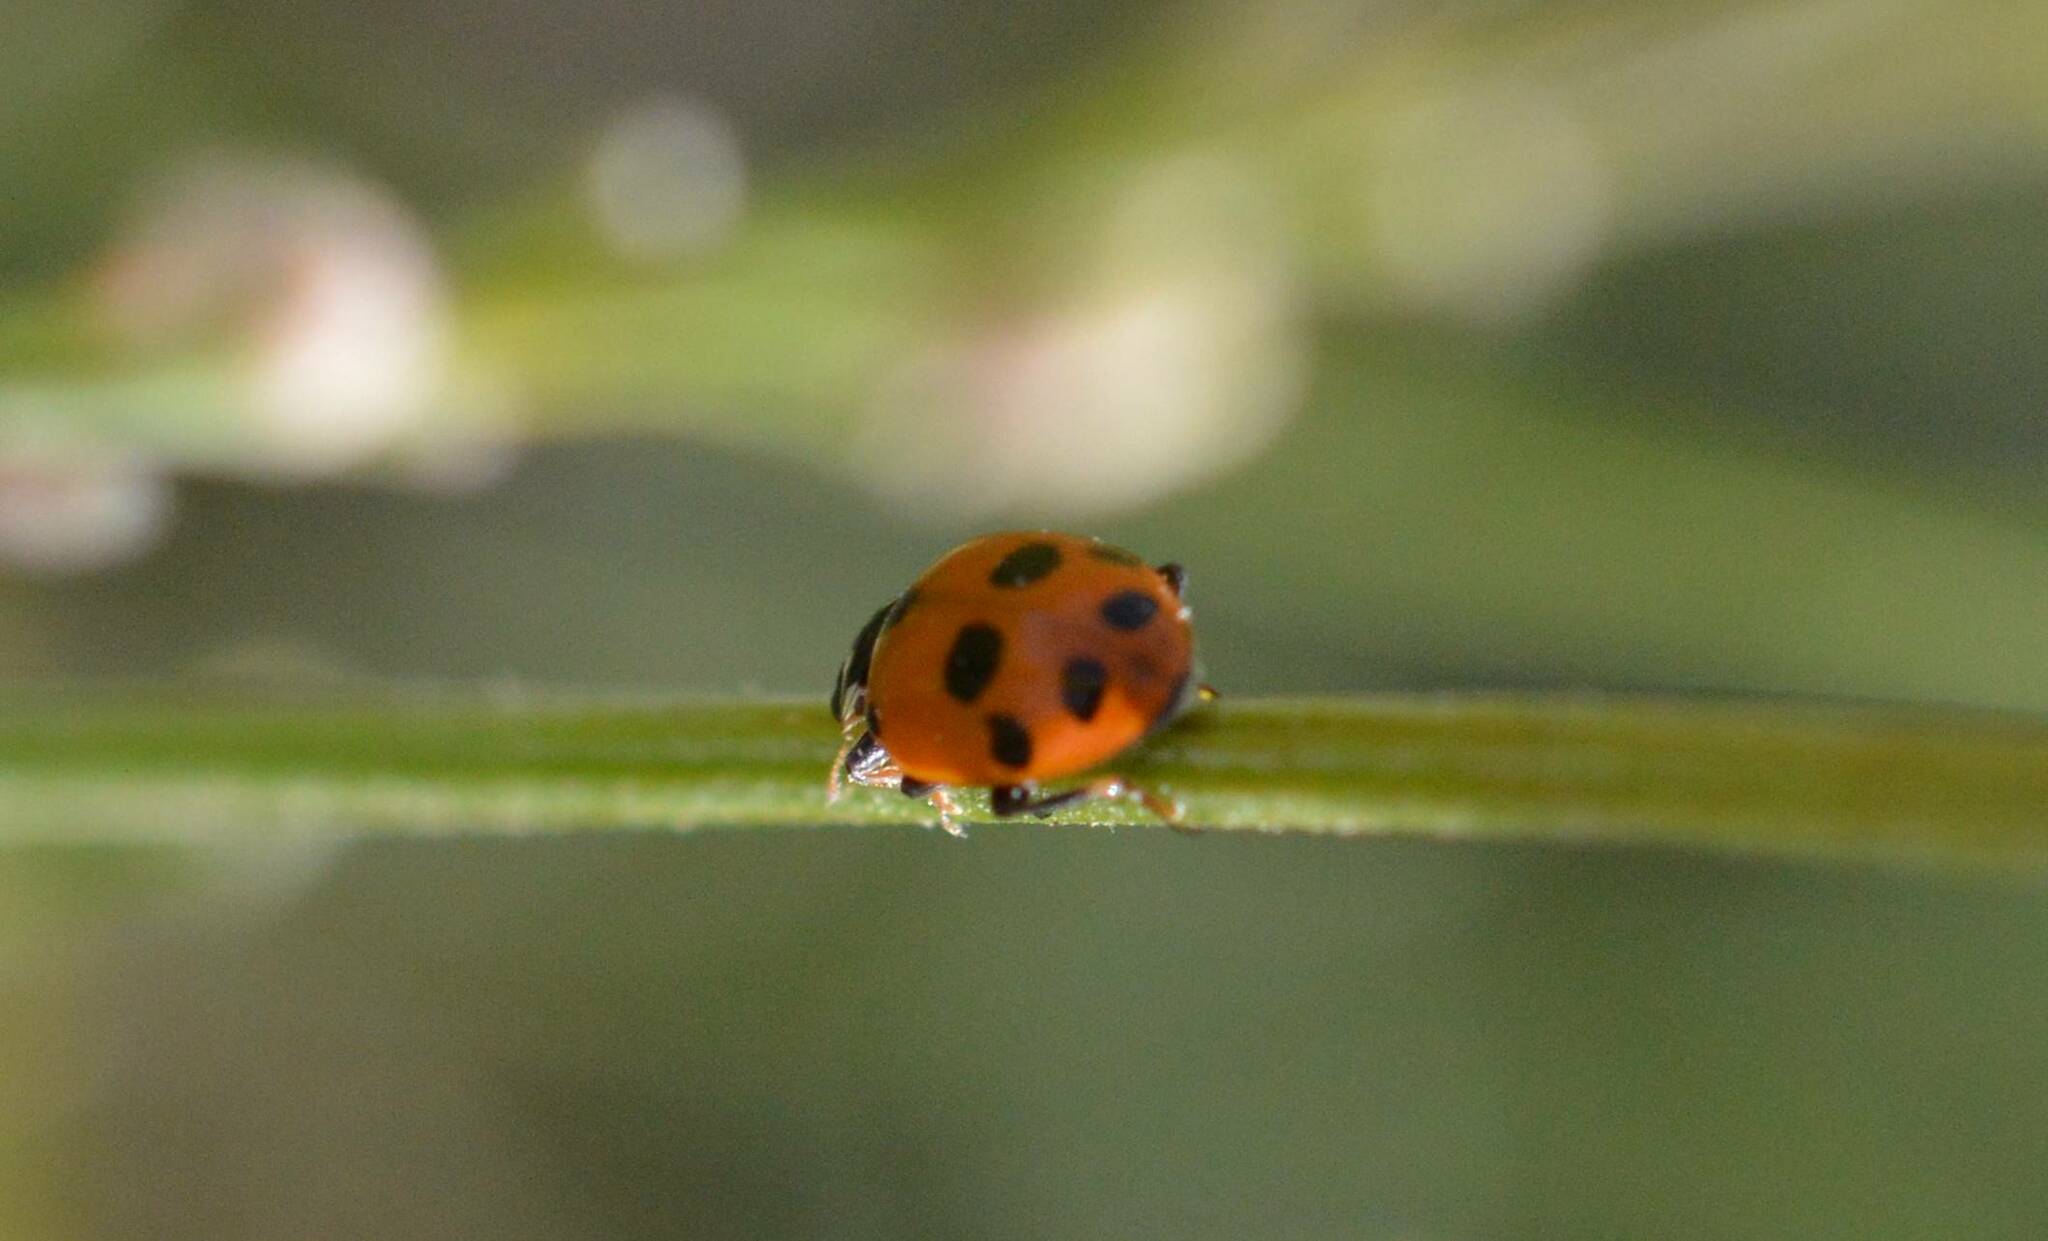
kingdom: Animalia
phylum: Arthropoda
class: Insecta
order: Coleoptera
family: Coccinellidae
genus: Hippodamia
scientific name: Hippodamia variegata
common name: Ladybird beetle
